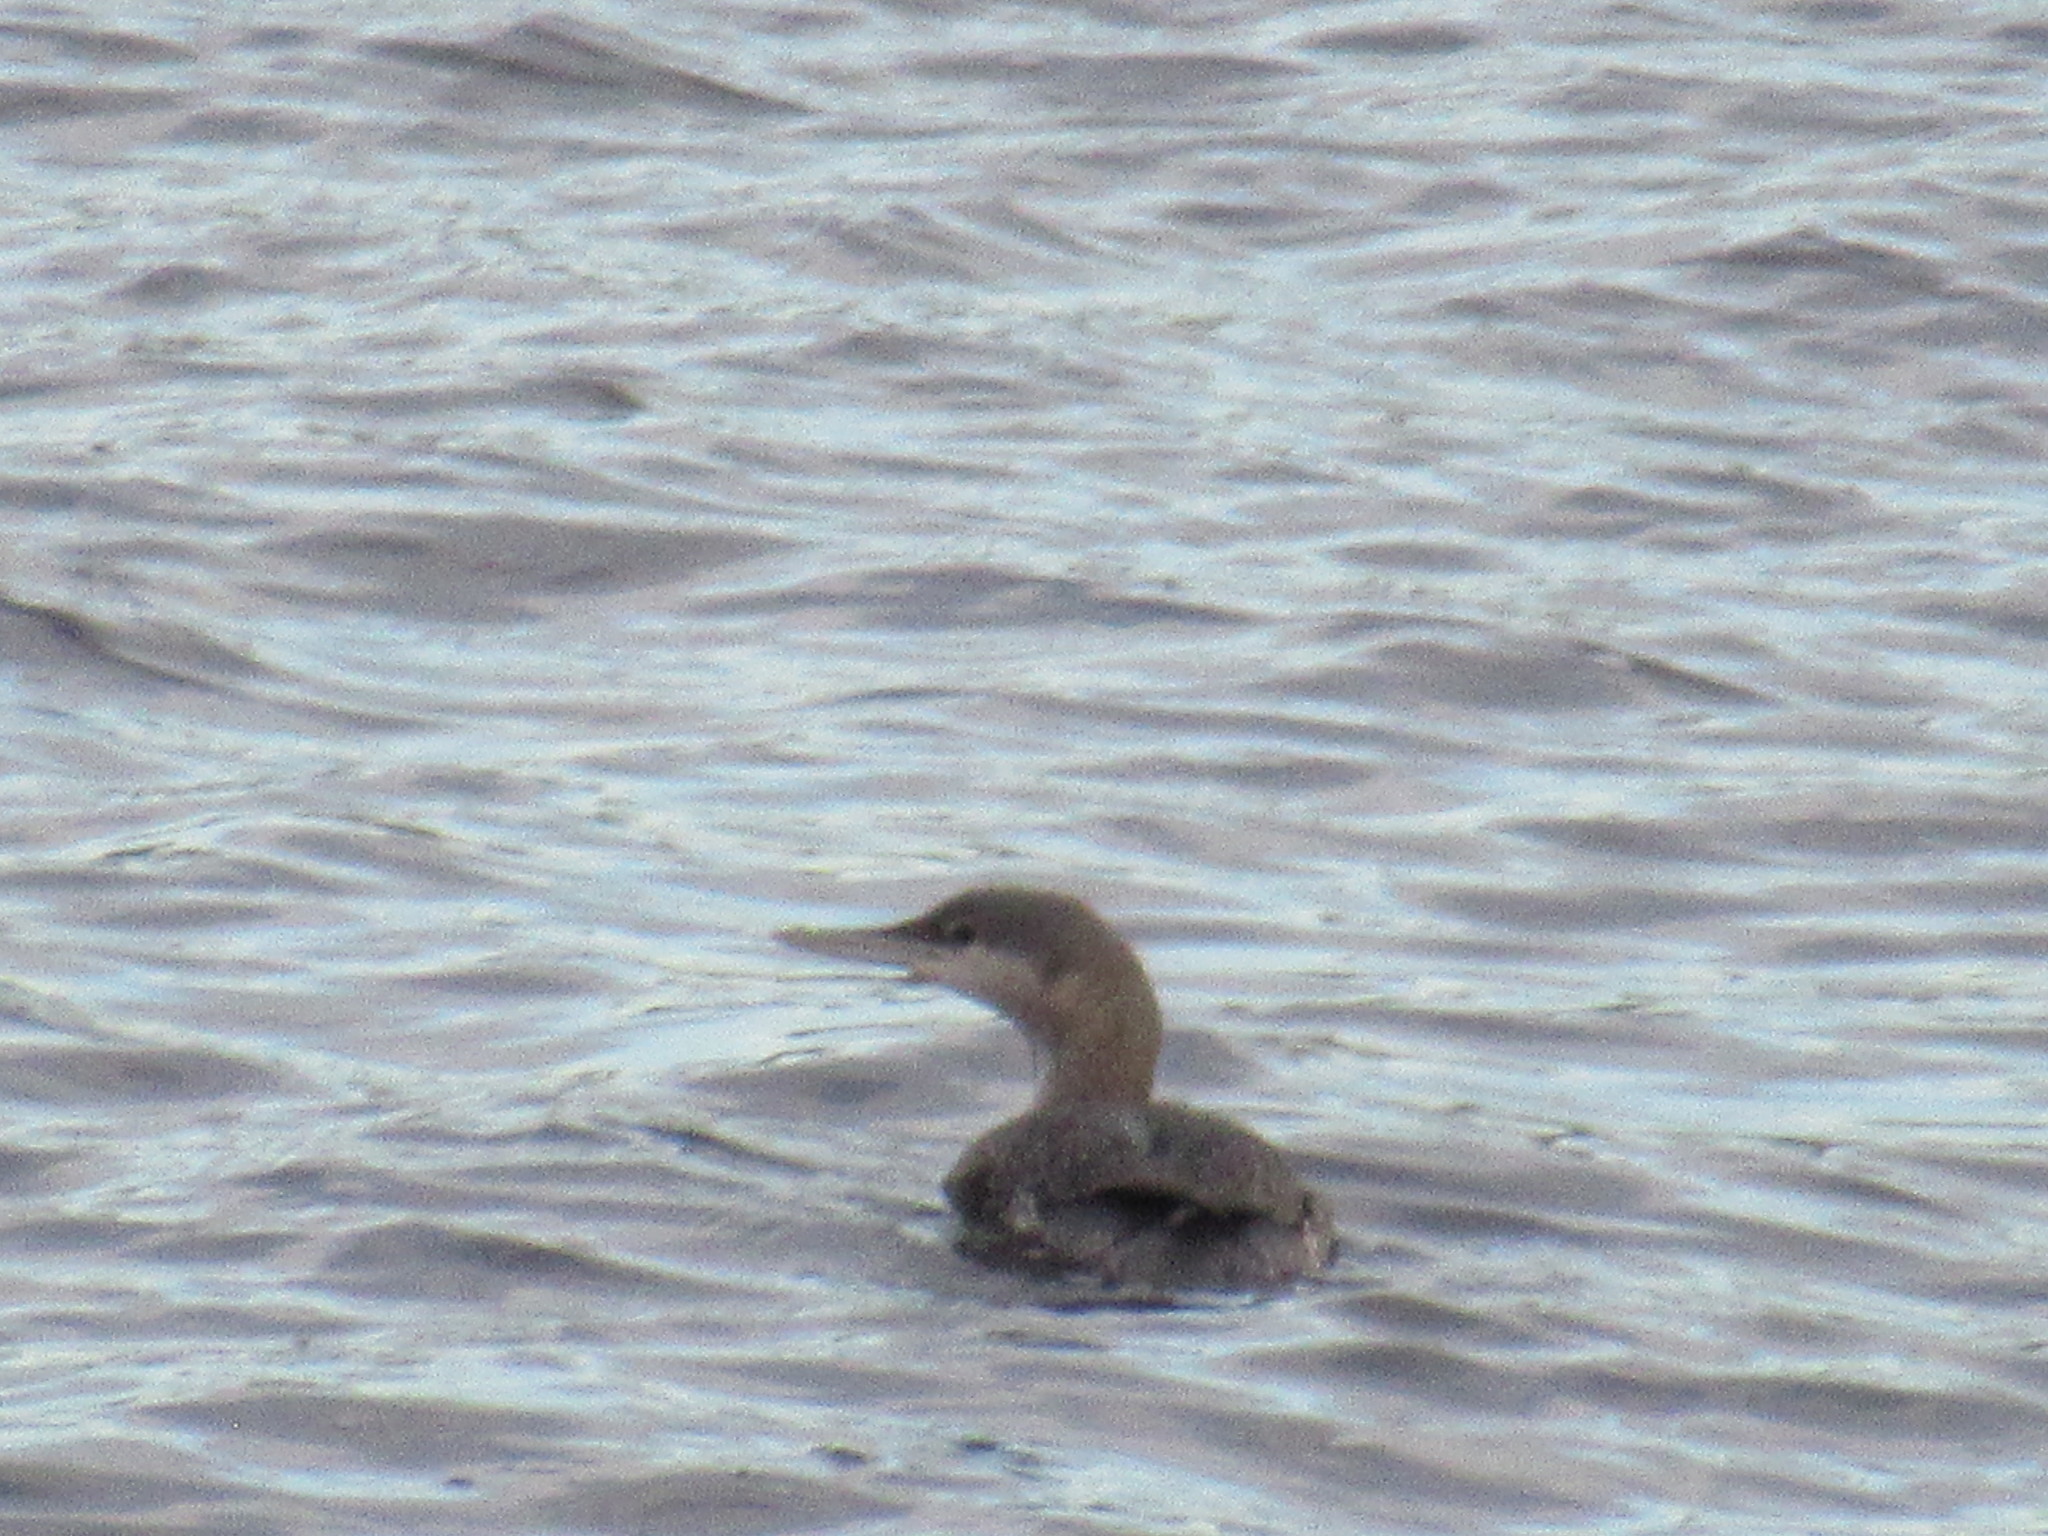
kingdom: Animalia
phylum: Chordata
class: Aves
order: Gaviiformes
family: Gaviidae
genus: Gavia
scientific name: Gavia stellata
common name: Red-throated loon
